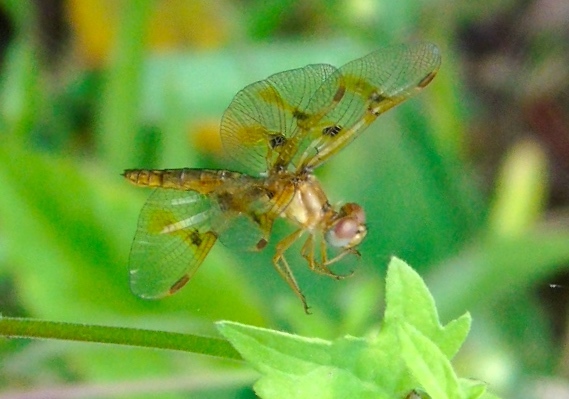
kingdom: Animalia
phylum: Arthropoda
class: Insecta
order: Odonata
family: Libellulidae
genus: Perithemis
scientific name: Perithemis
